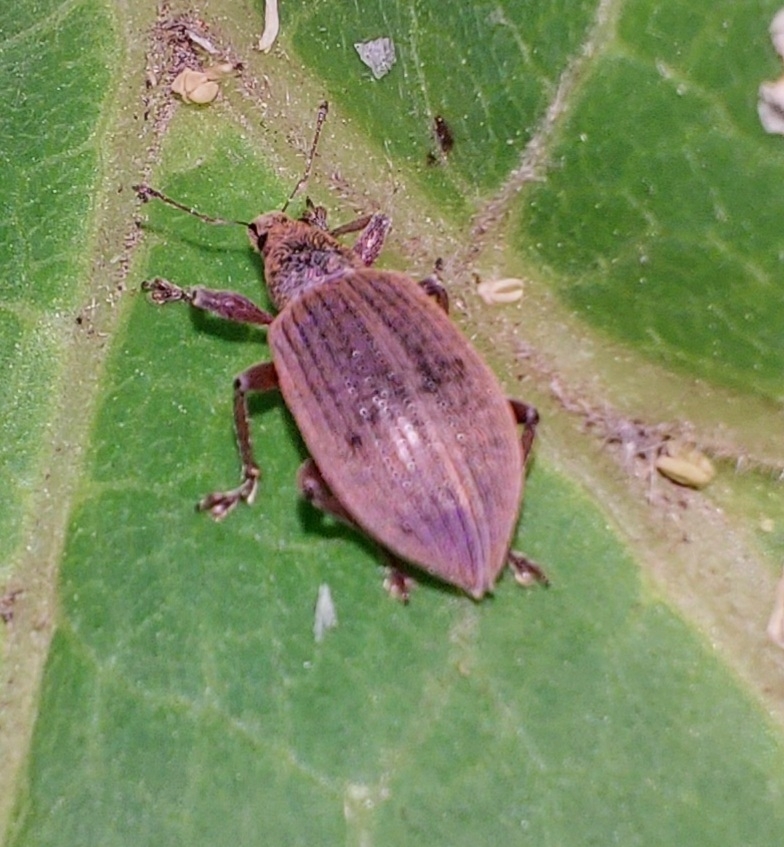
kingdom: Animalia
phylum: Arthropoda
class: Insecta
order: Coleoptera
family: Curculionidae
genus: Polydrusus
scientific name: Polydrusus mollis
